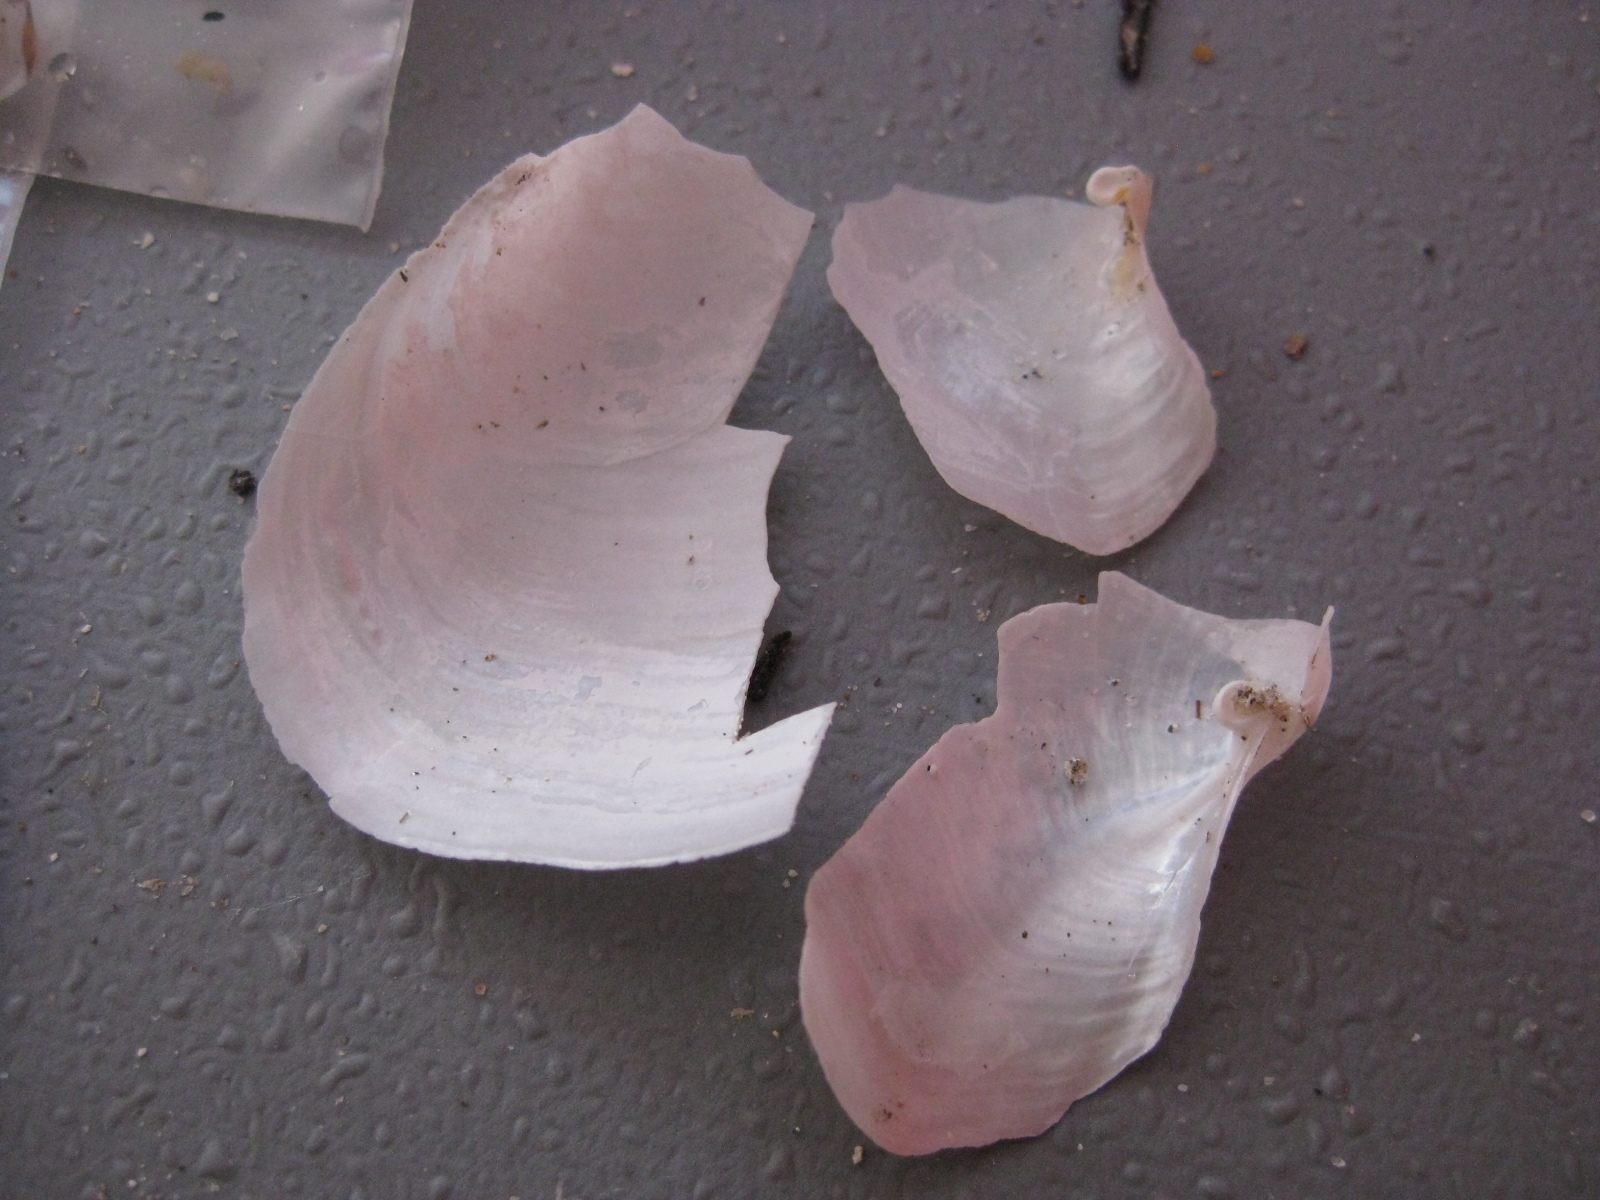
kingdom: Animalia
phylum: Mollusca
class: Bivalvia
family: Periplomatidae
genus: Offadesma
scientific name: Offadesma angasi
